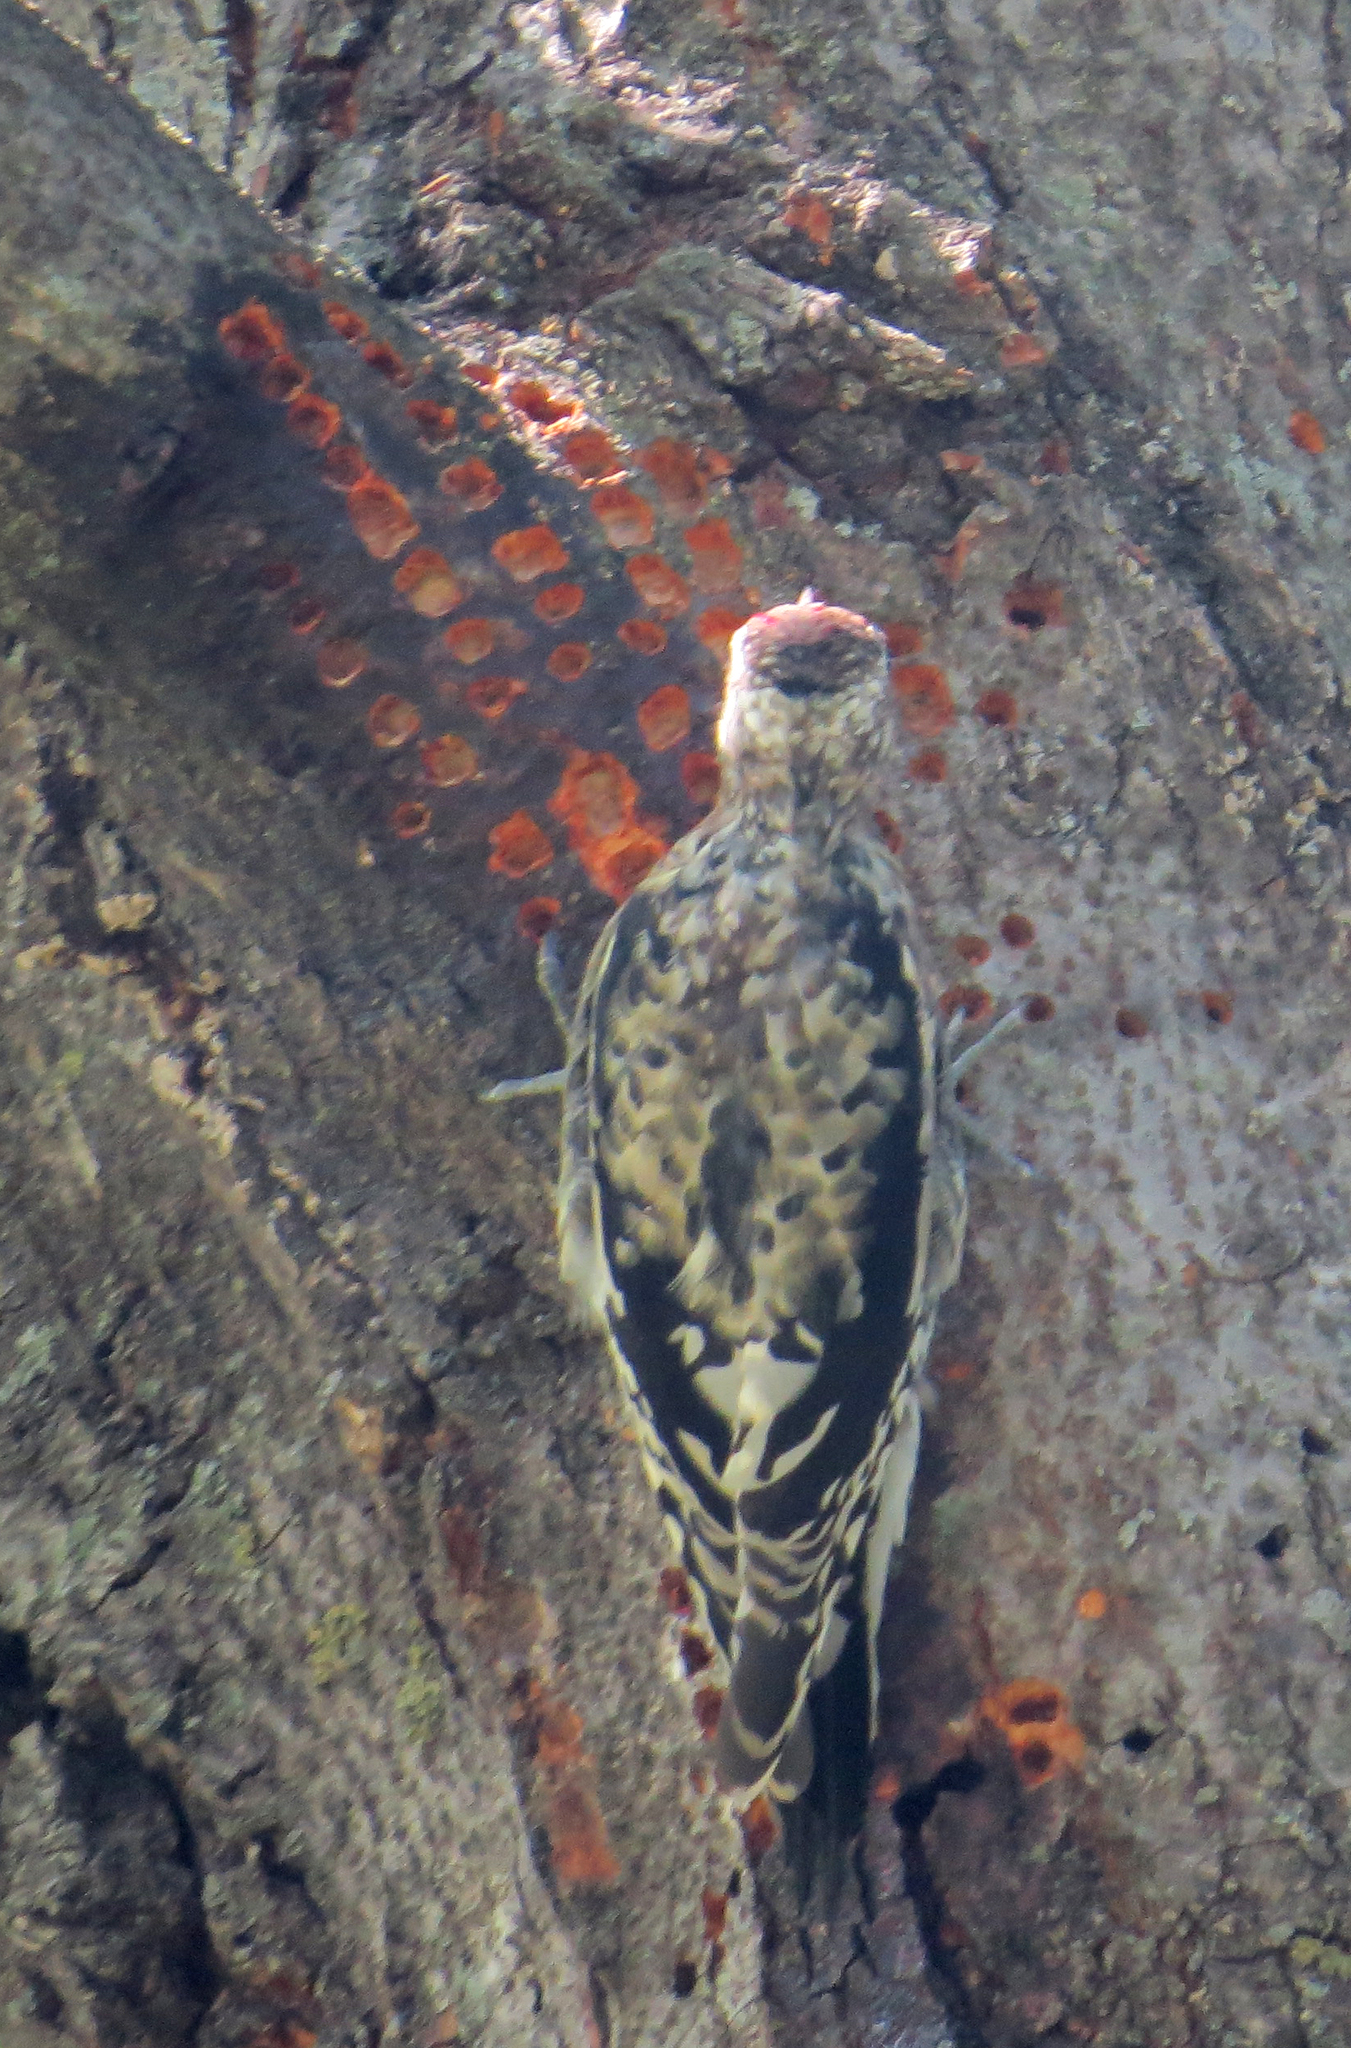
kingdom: Animalia
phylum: Chordata
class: Aves
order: Piciformes
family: Picidae
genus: Sphyrapicus
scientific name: Sphyrapicus varius
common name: Yellow-bellied sapsucker
